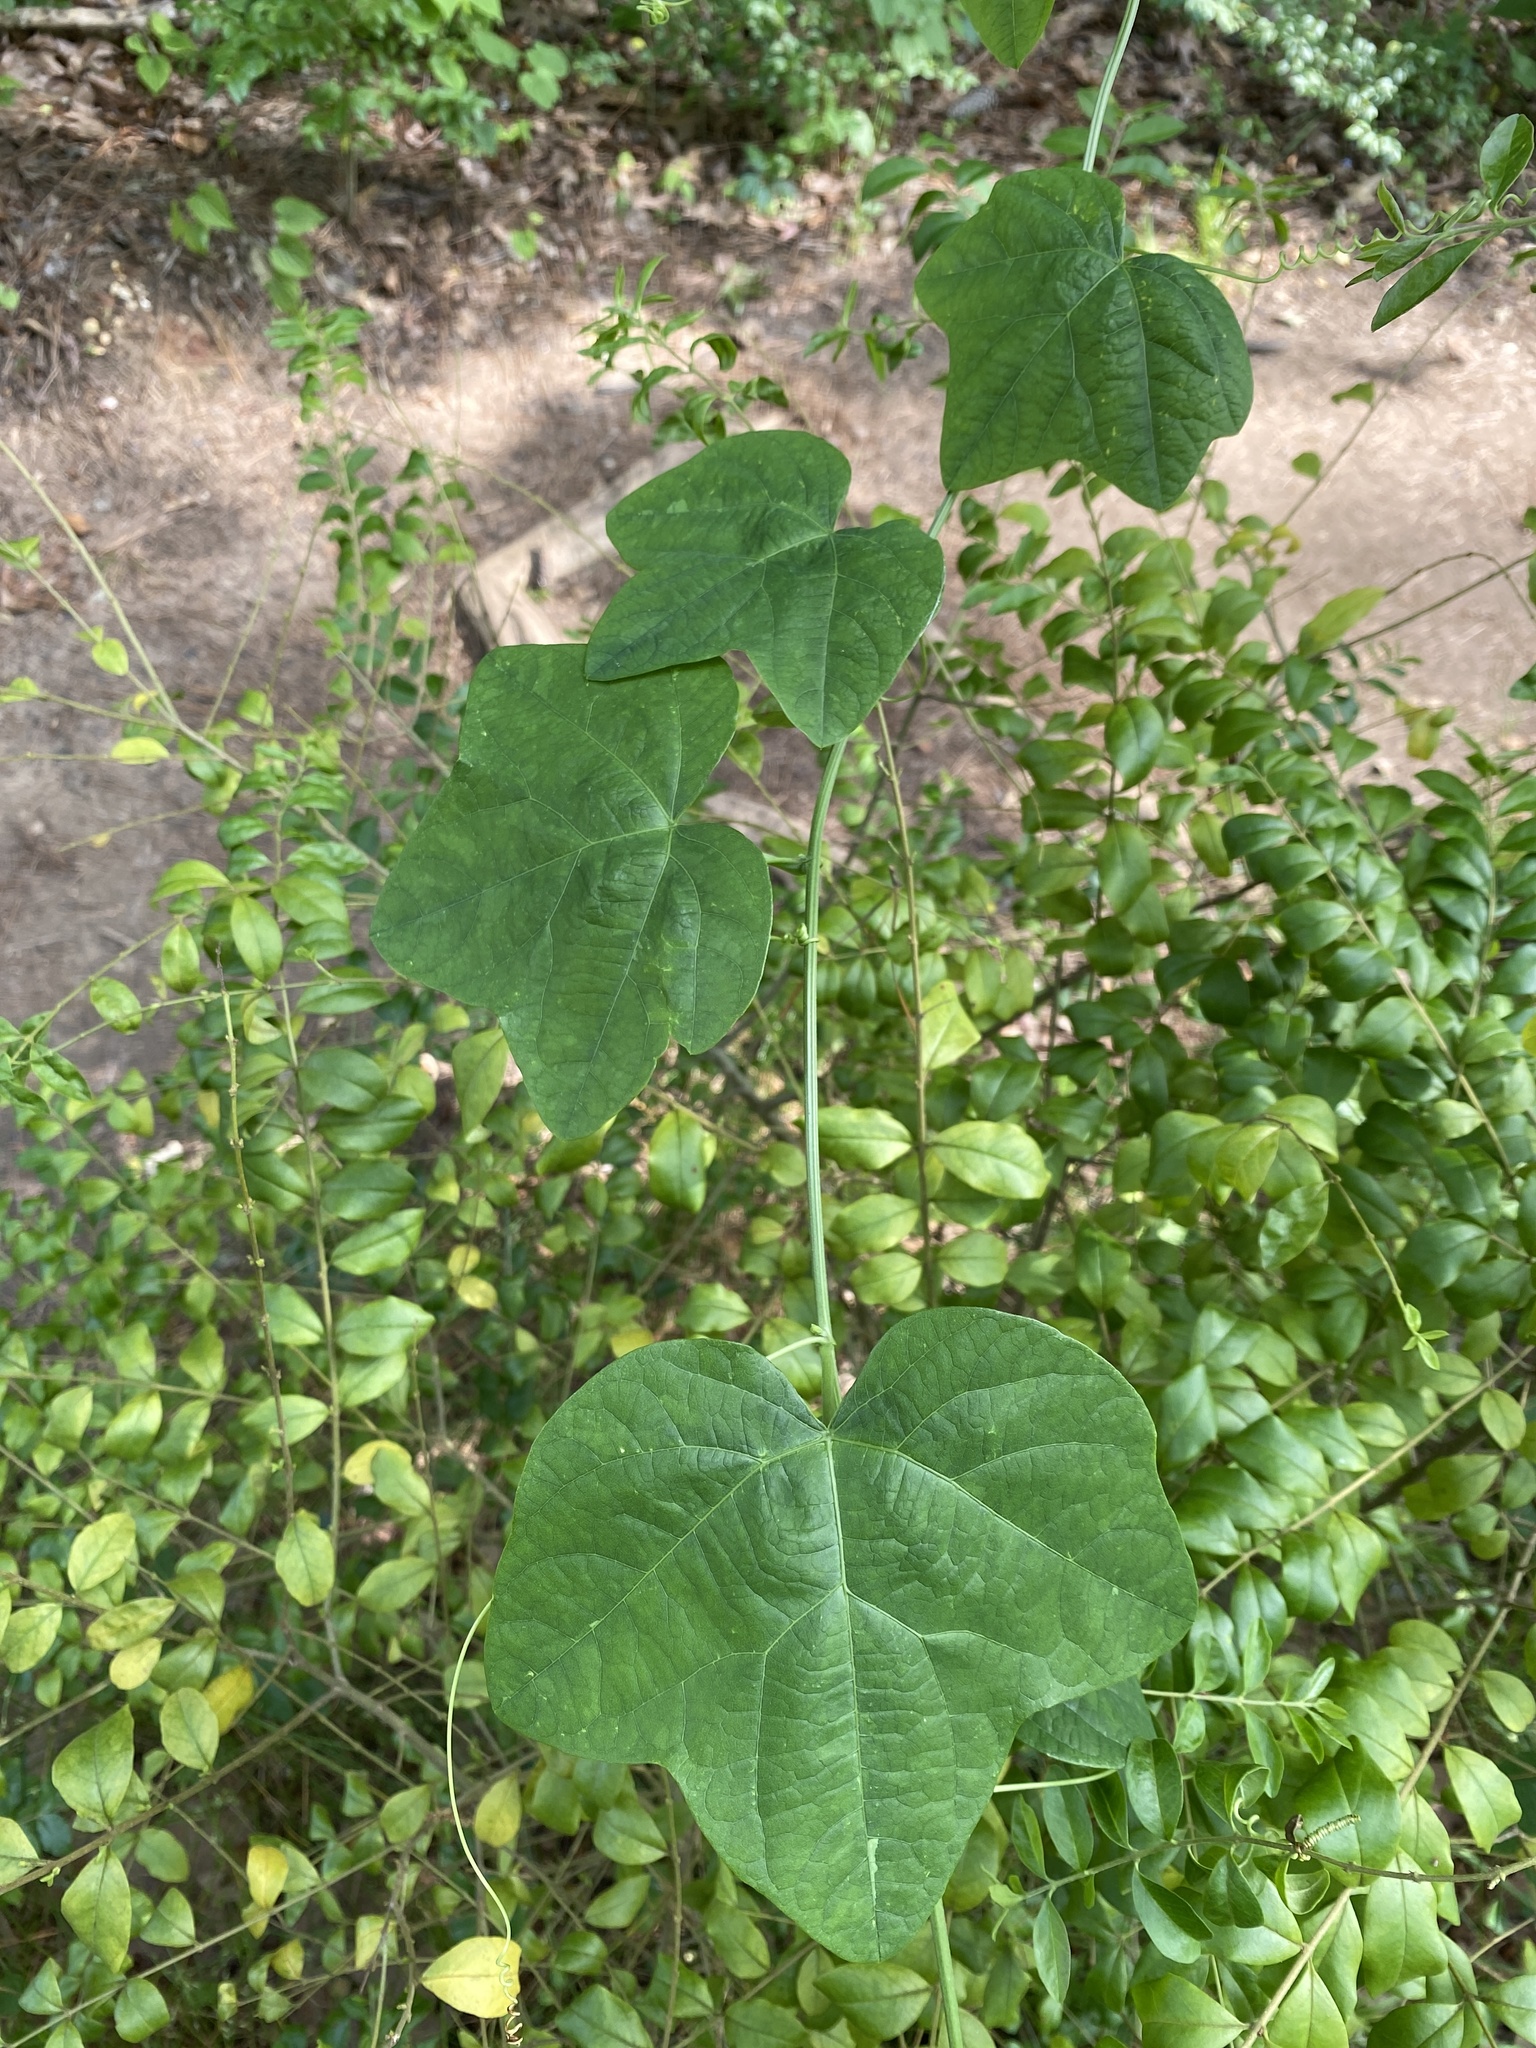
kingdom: Plantae
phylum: Tracheophyta
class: Magnoliopsida
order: Malpighiales
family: Passifloraceae
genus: Passiflora
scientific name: Passiflora lutea
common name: Yellow passionflower
